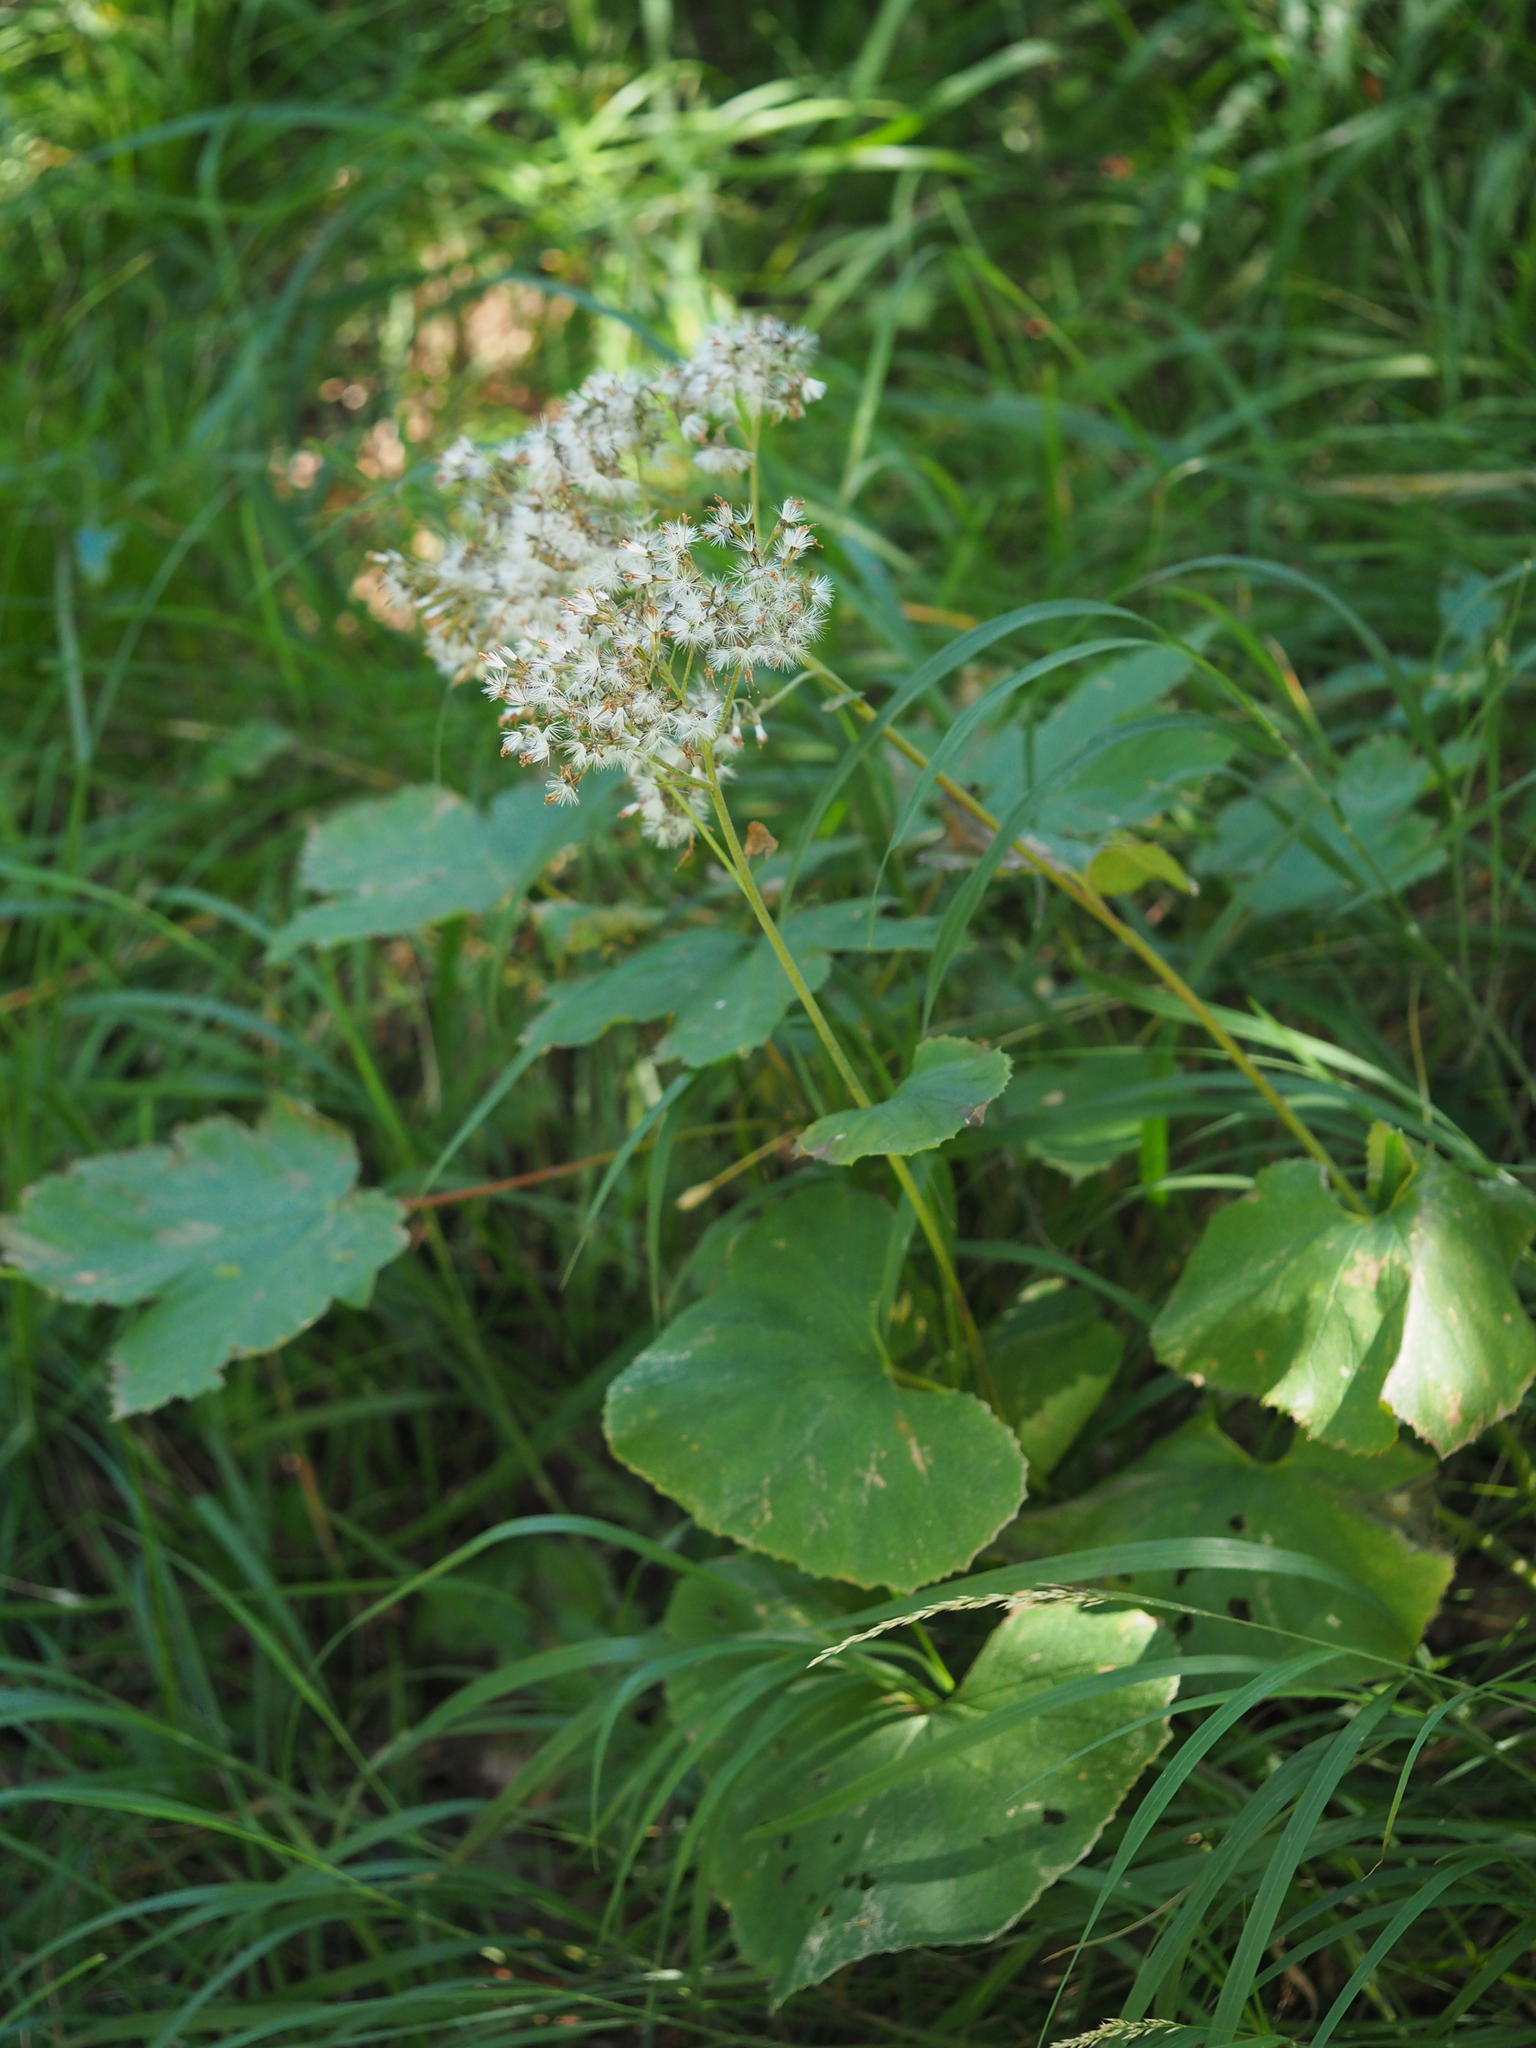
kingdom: Plantae
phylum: Tracheophyta
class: Magnoliopsida
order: Asterales
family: Asteraceae
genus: Adenostyles
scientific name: Adenostyles alpina
